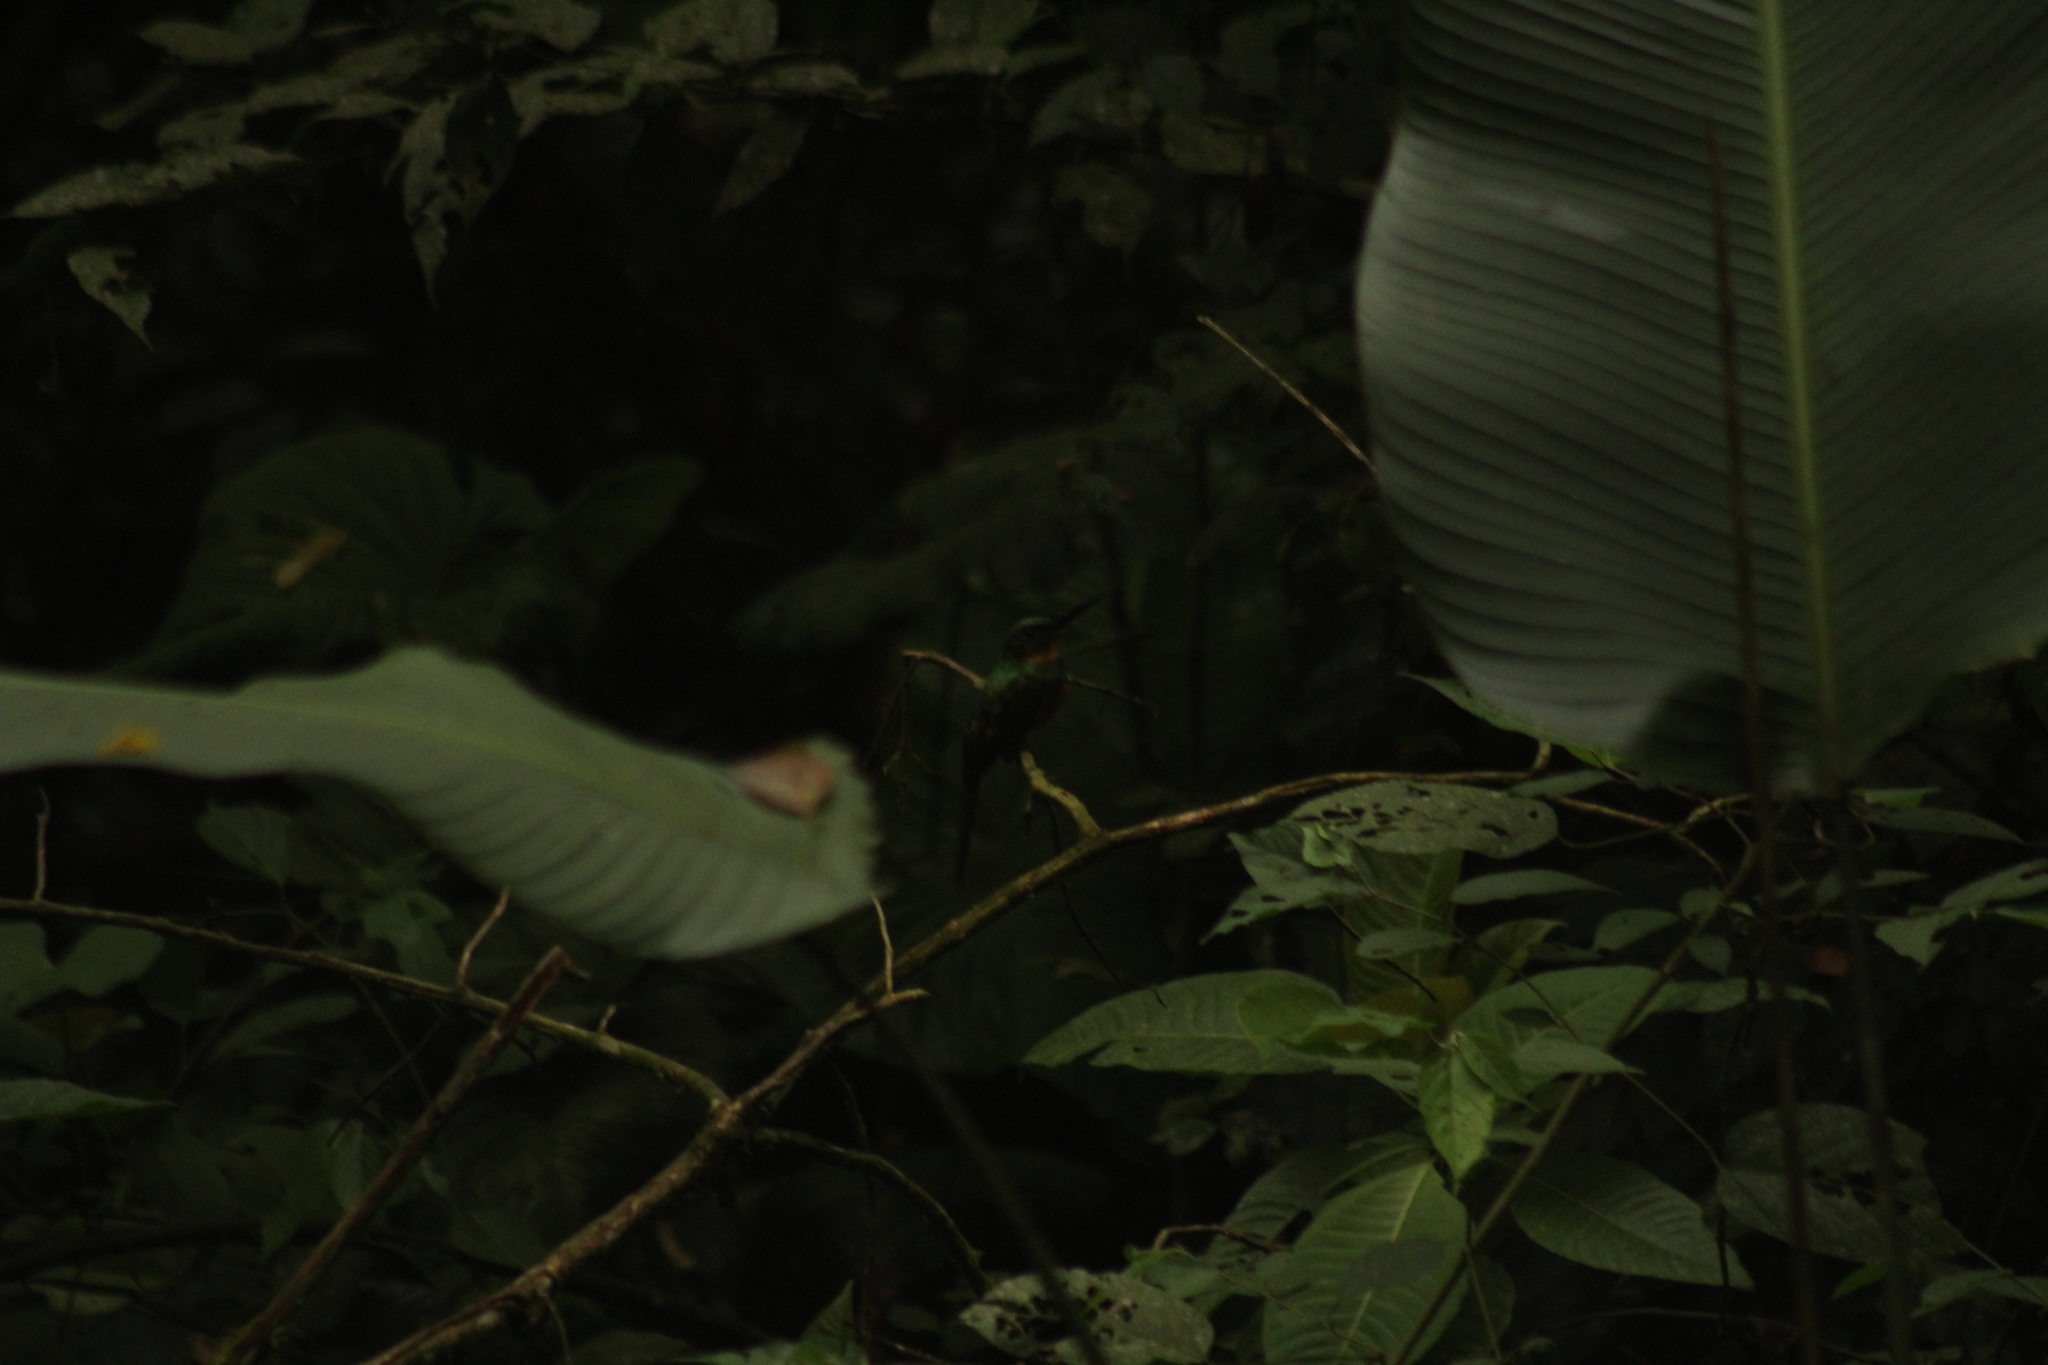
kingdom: Animalia
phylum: Chordata
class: Aves
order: Piciformes
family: Galbulidae
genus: Galbula
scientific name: Galbula ruficauda
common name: Rufous-tailed jacamar
